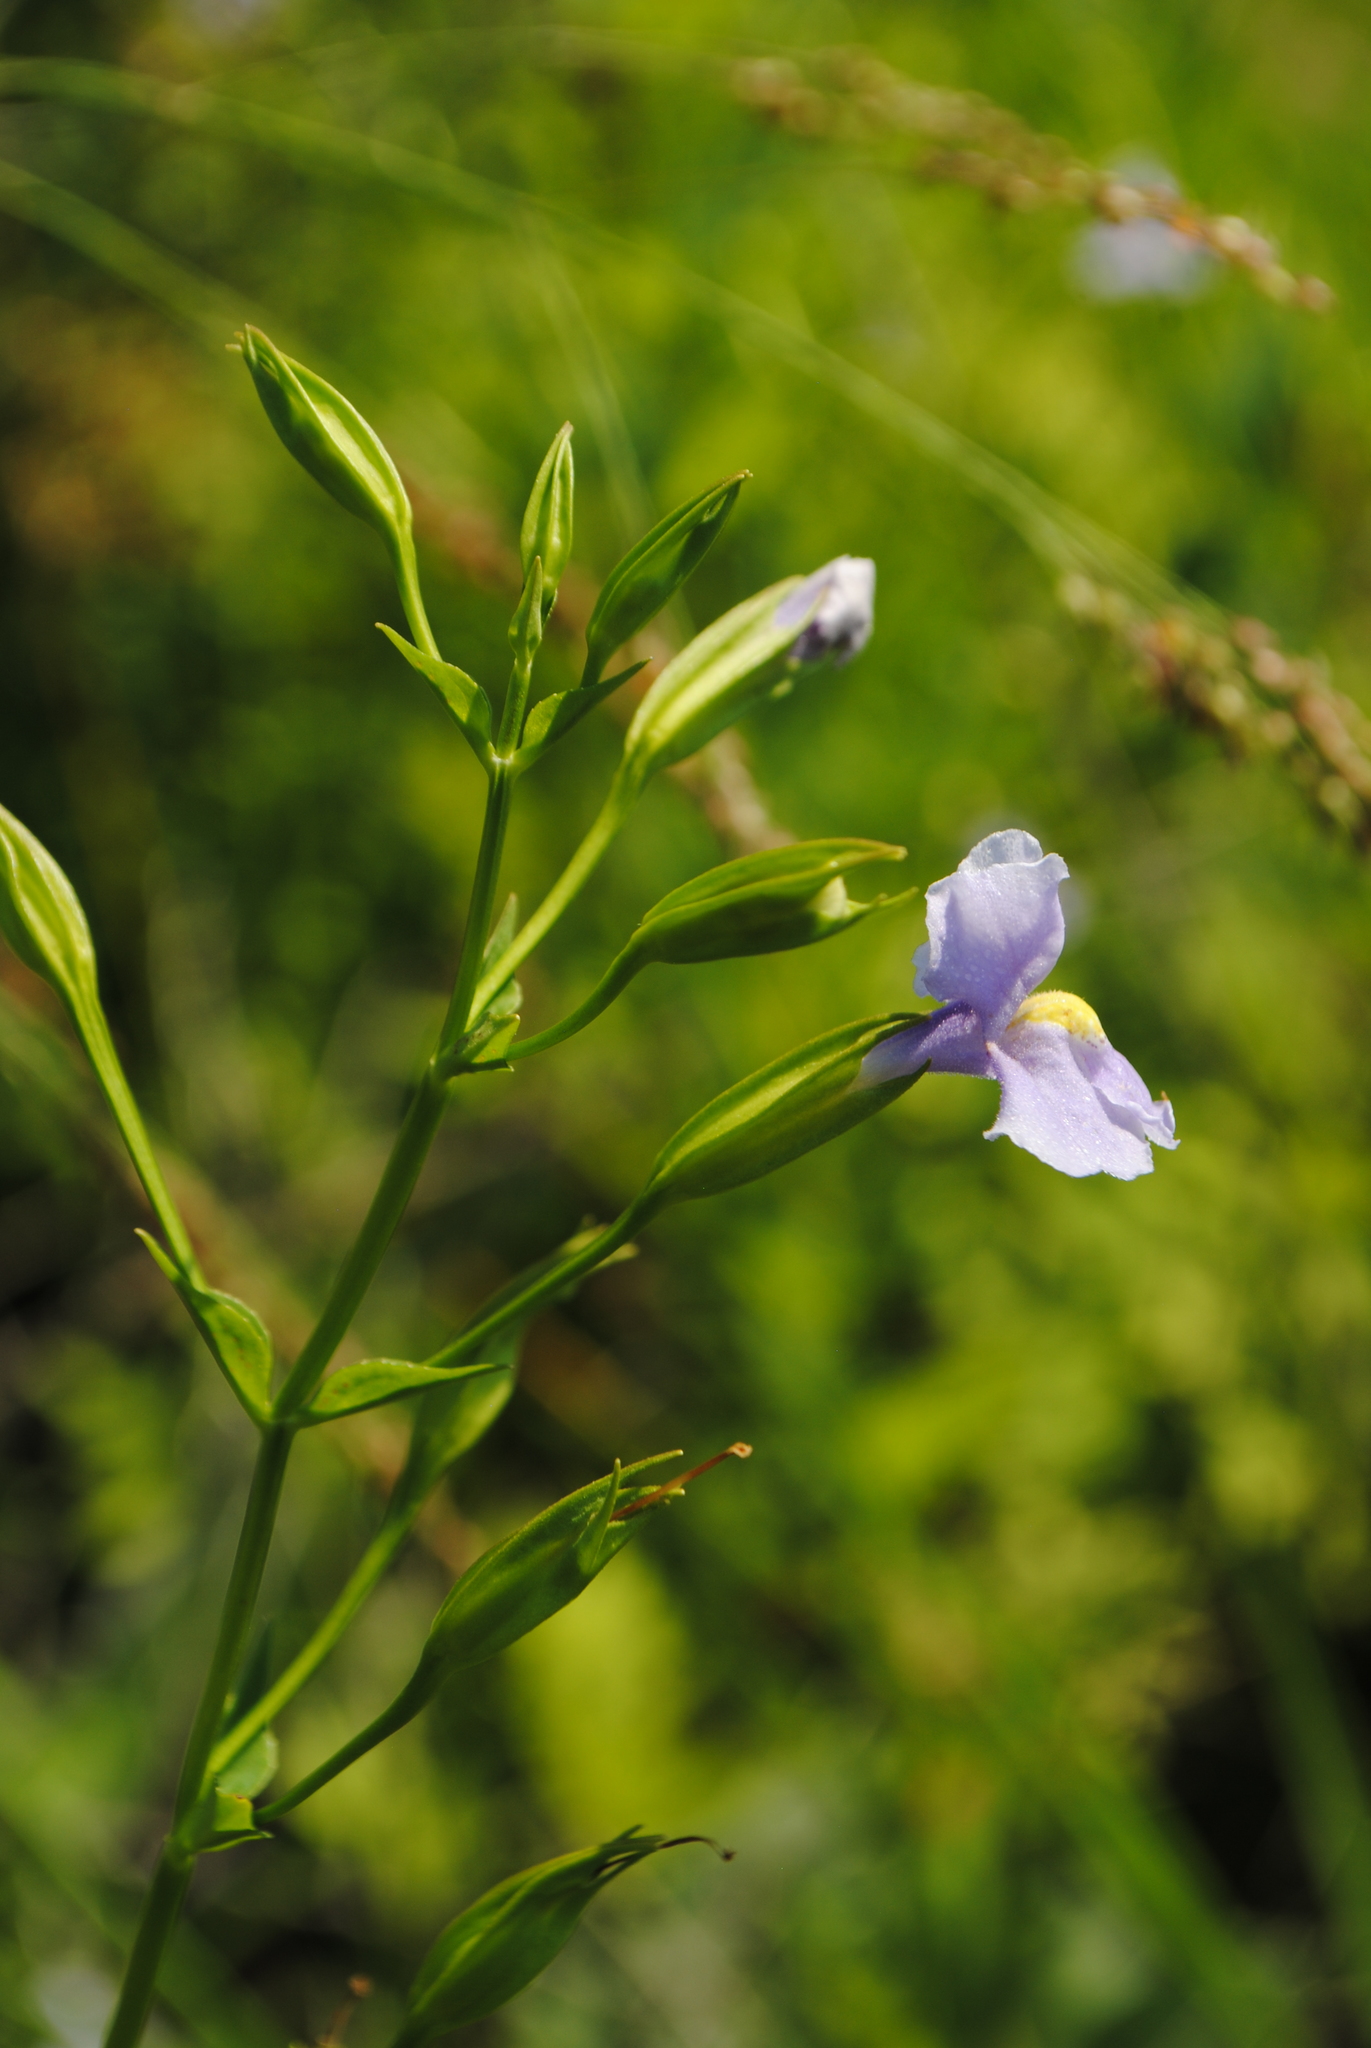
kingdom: Plantae
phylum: Tracheophyta
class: Magnoliopsida
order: Lamiales
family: Phrymaceae
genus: Mimulus
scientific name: Mimulus ringens
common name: Allegheny monkeyflower
